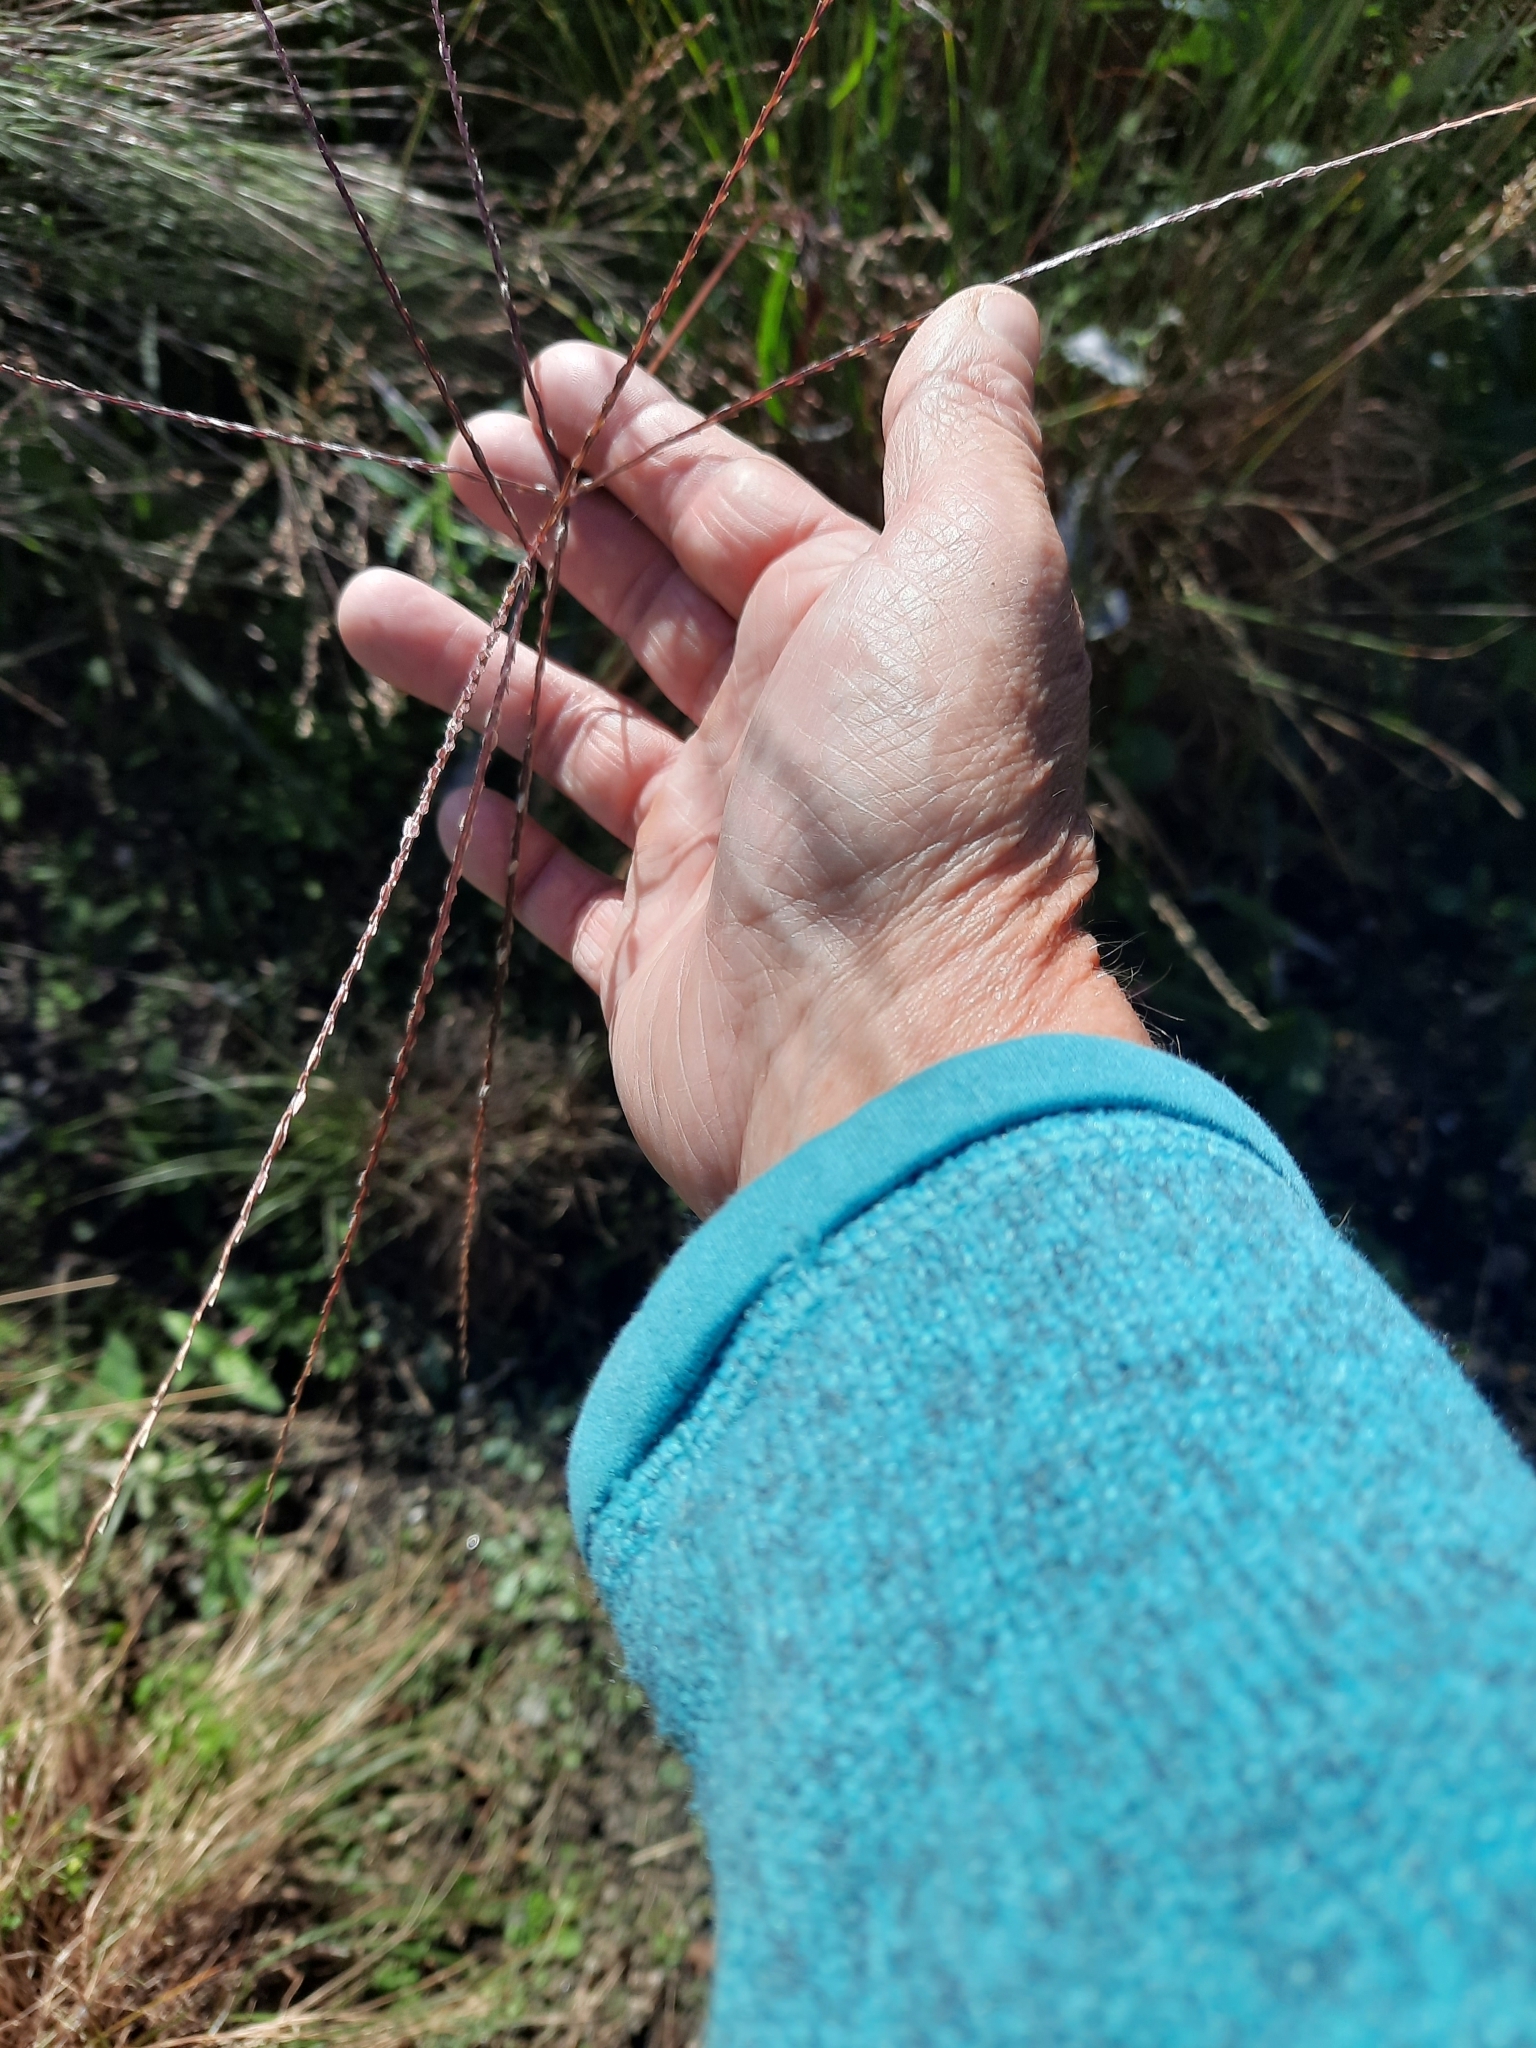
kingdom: Plantae
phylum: Tracheophyta
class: Liliopsida
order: Poales
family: Poaceae
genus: Chloris
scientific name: Chloris verticillata
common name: Tumble windmill grass
